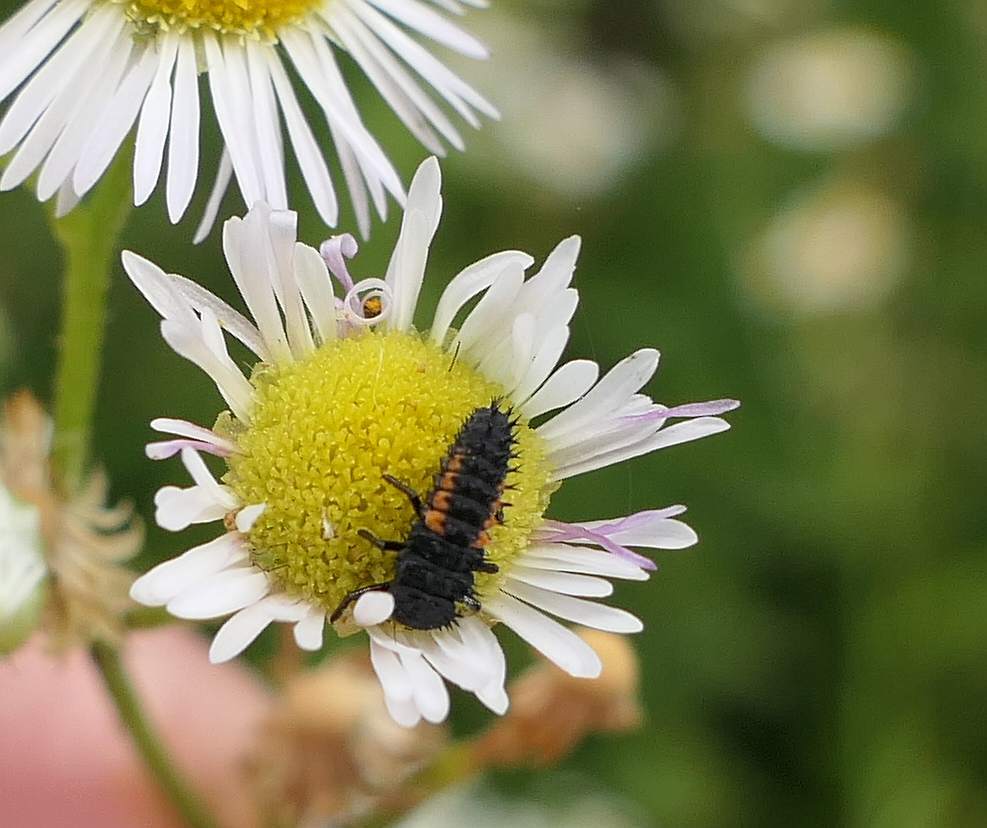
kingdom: Animalia
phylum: Arthropoda
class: Insecta
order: Coleoptera
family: Coccinellidae
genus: Harmonia
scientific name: Harmonia axyridis
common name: Harlequin ladybird
